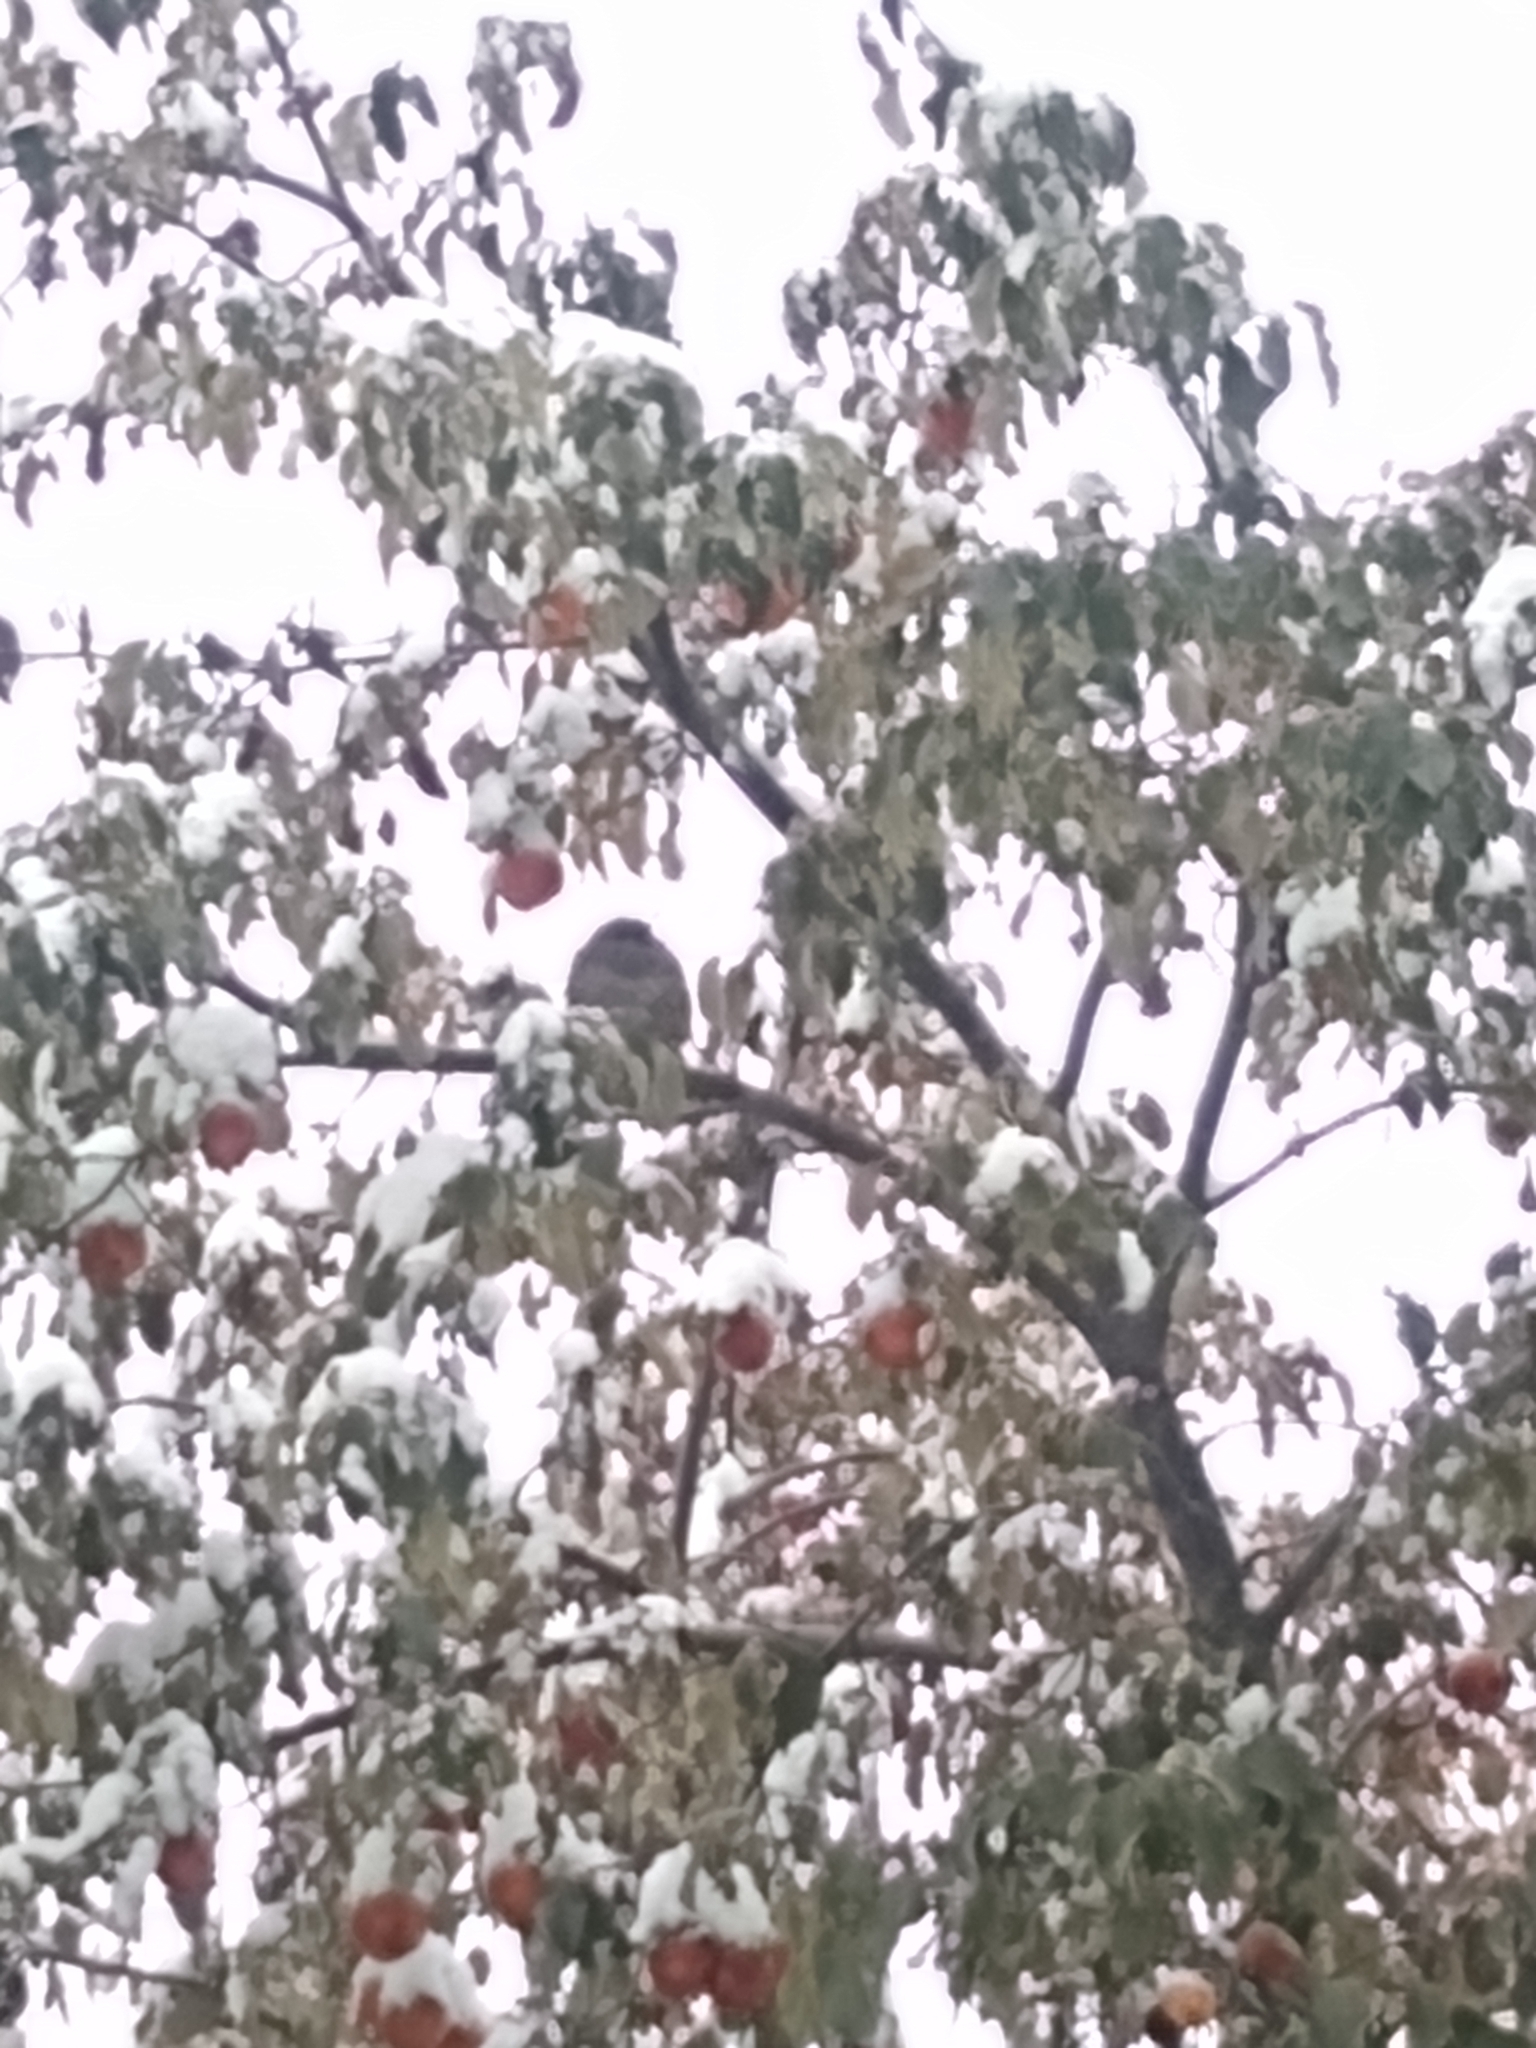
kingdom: Animalia
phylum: Chordata
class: Aves
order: Galliformes
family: Odontophoridae
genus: Callipepla
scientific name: Callipepla californica
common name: California quail
